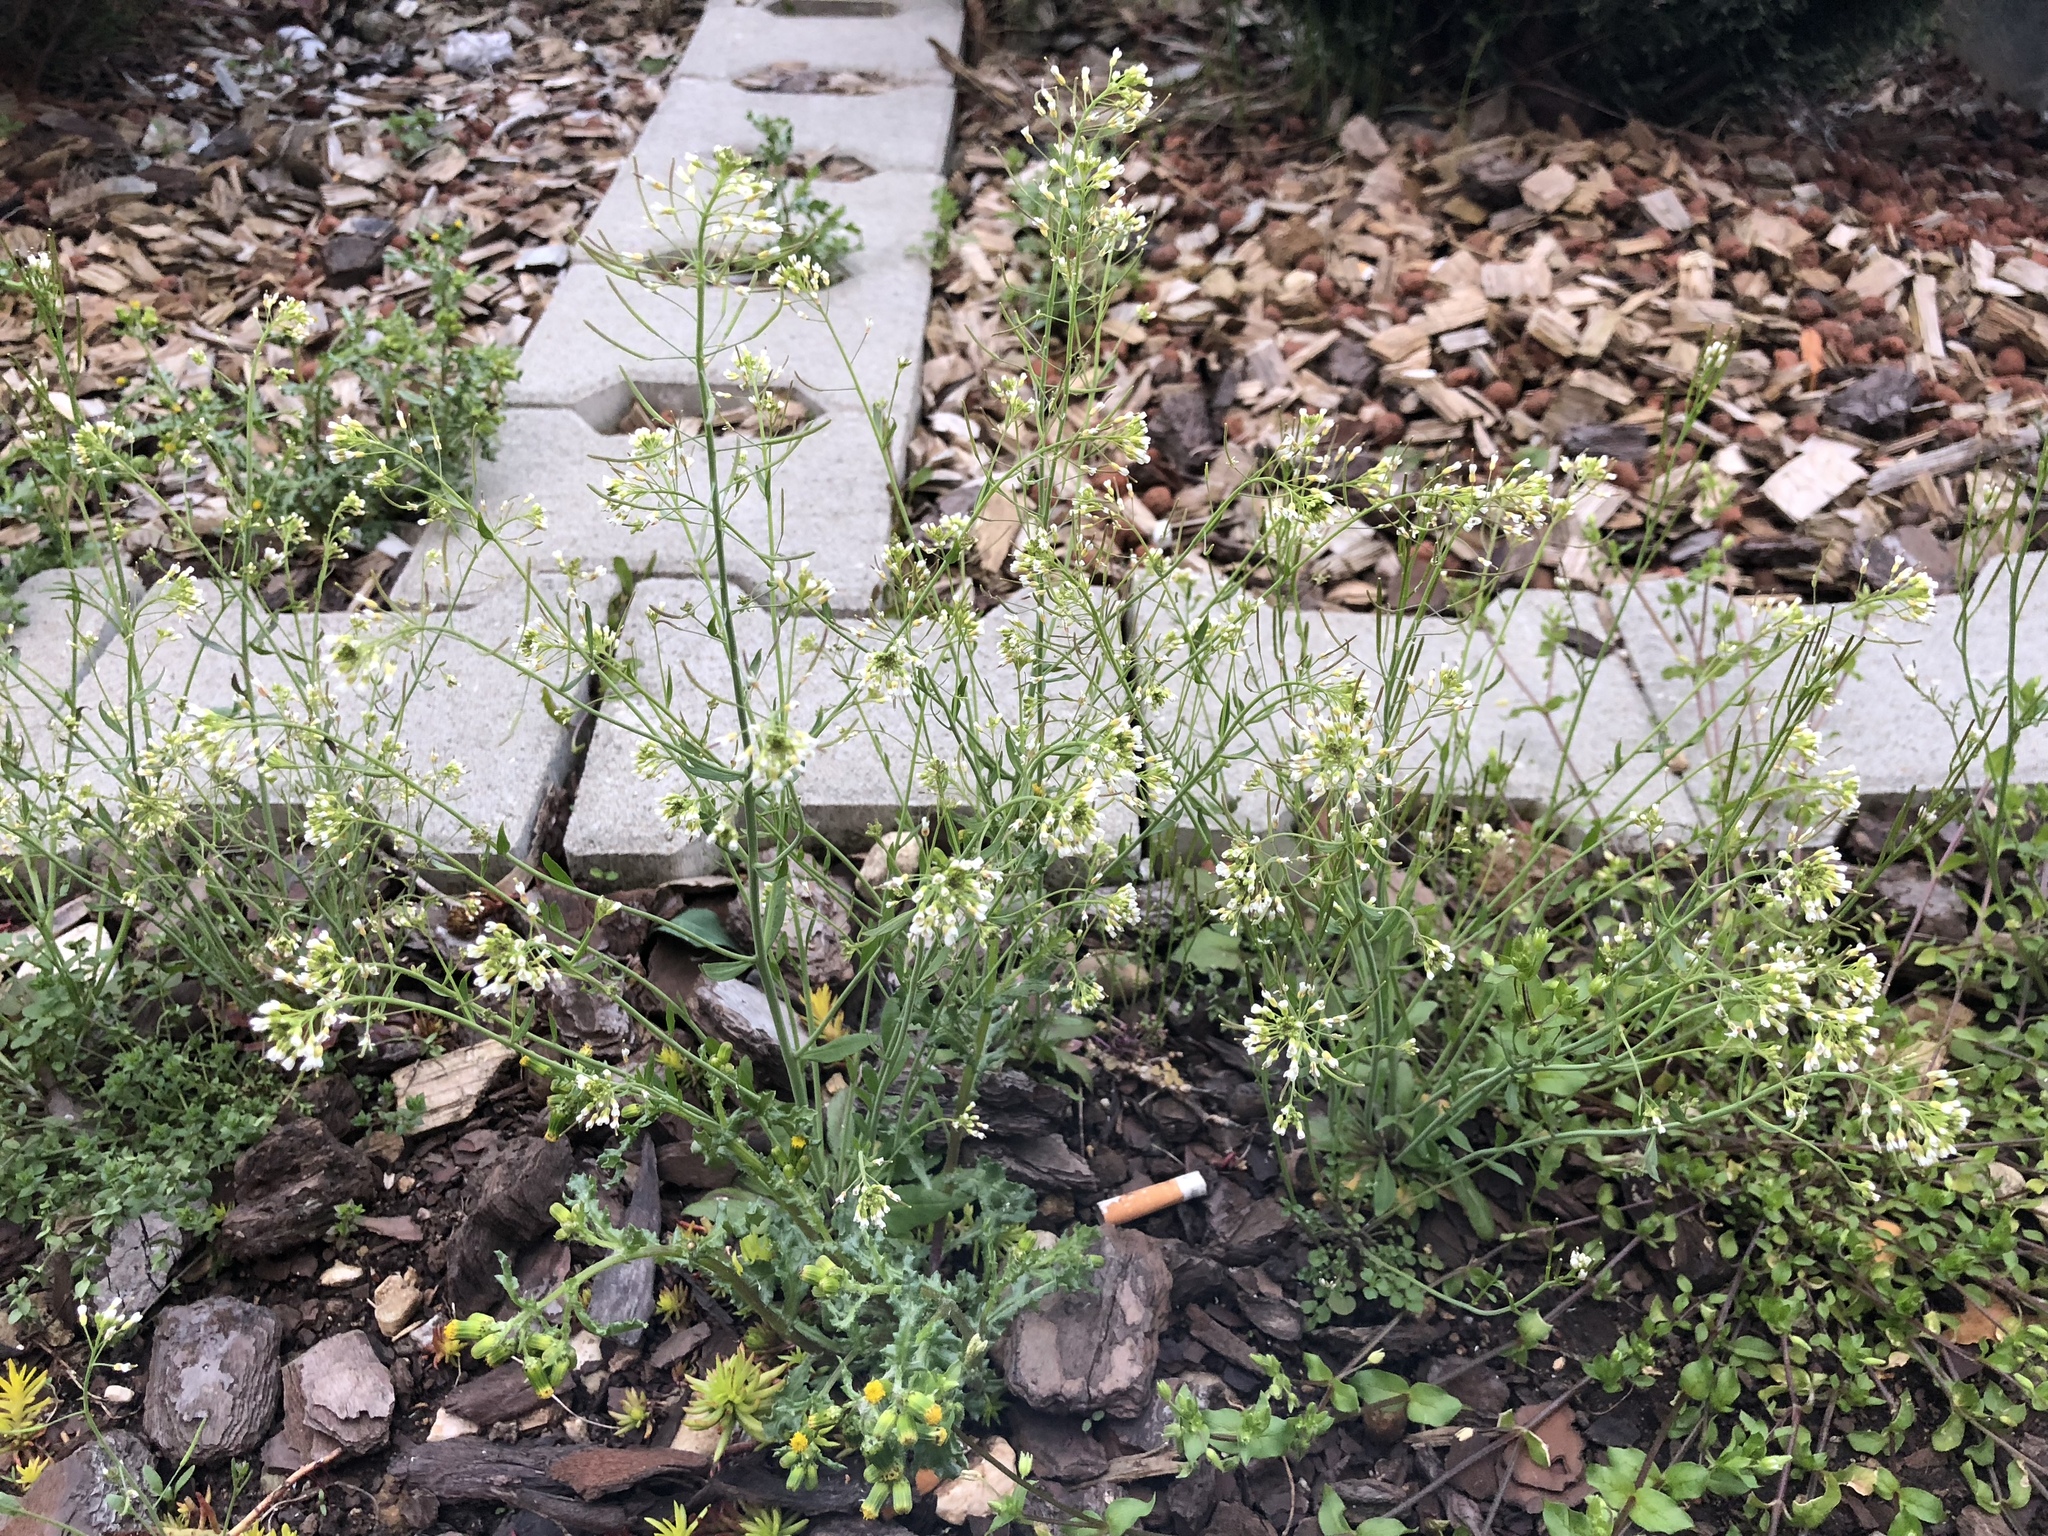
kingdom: Plantae
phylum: Tracheophyta
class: Magnoliopsida
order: Brassicales
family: Brassicaceae
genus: Arabidopsis
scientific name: Arabidopsis thaliana
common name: Thale cress
